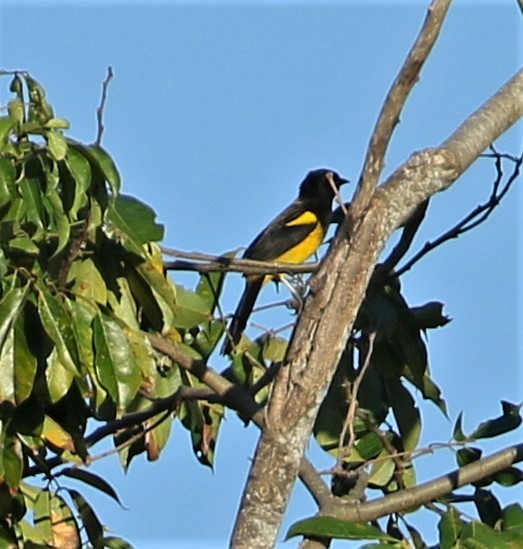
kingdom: Animalia
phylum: Chordata
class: Aves
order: Passeriformes
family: Icteridae
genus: Icterus
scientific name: Icterus prosthemelas
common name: Black-cowled oriole
